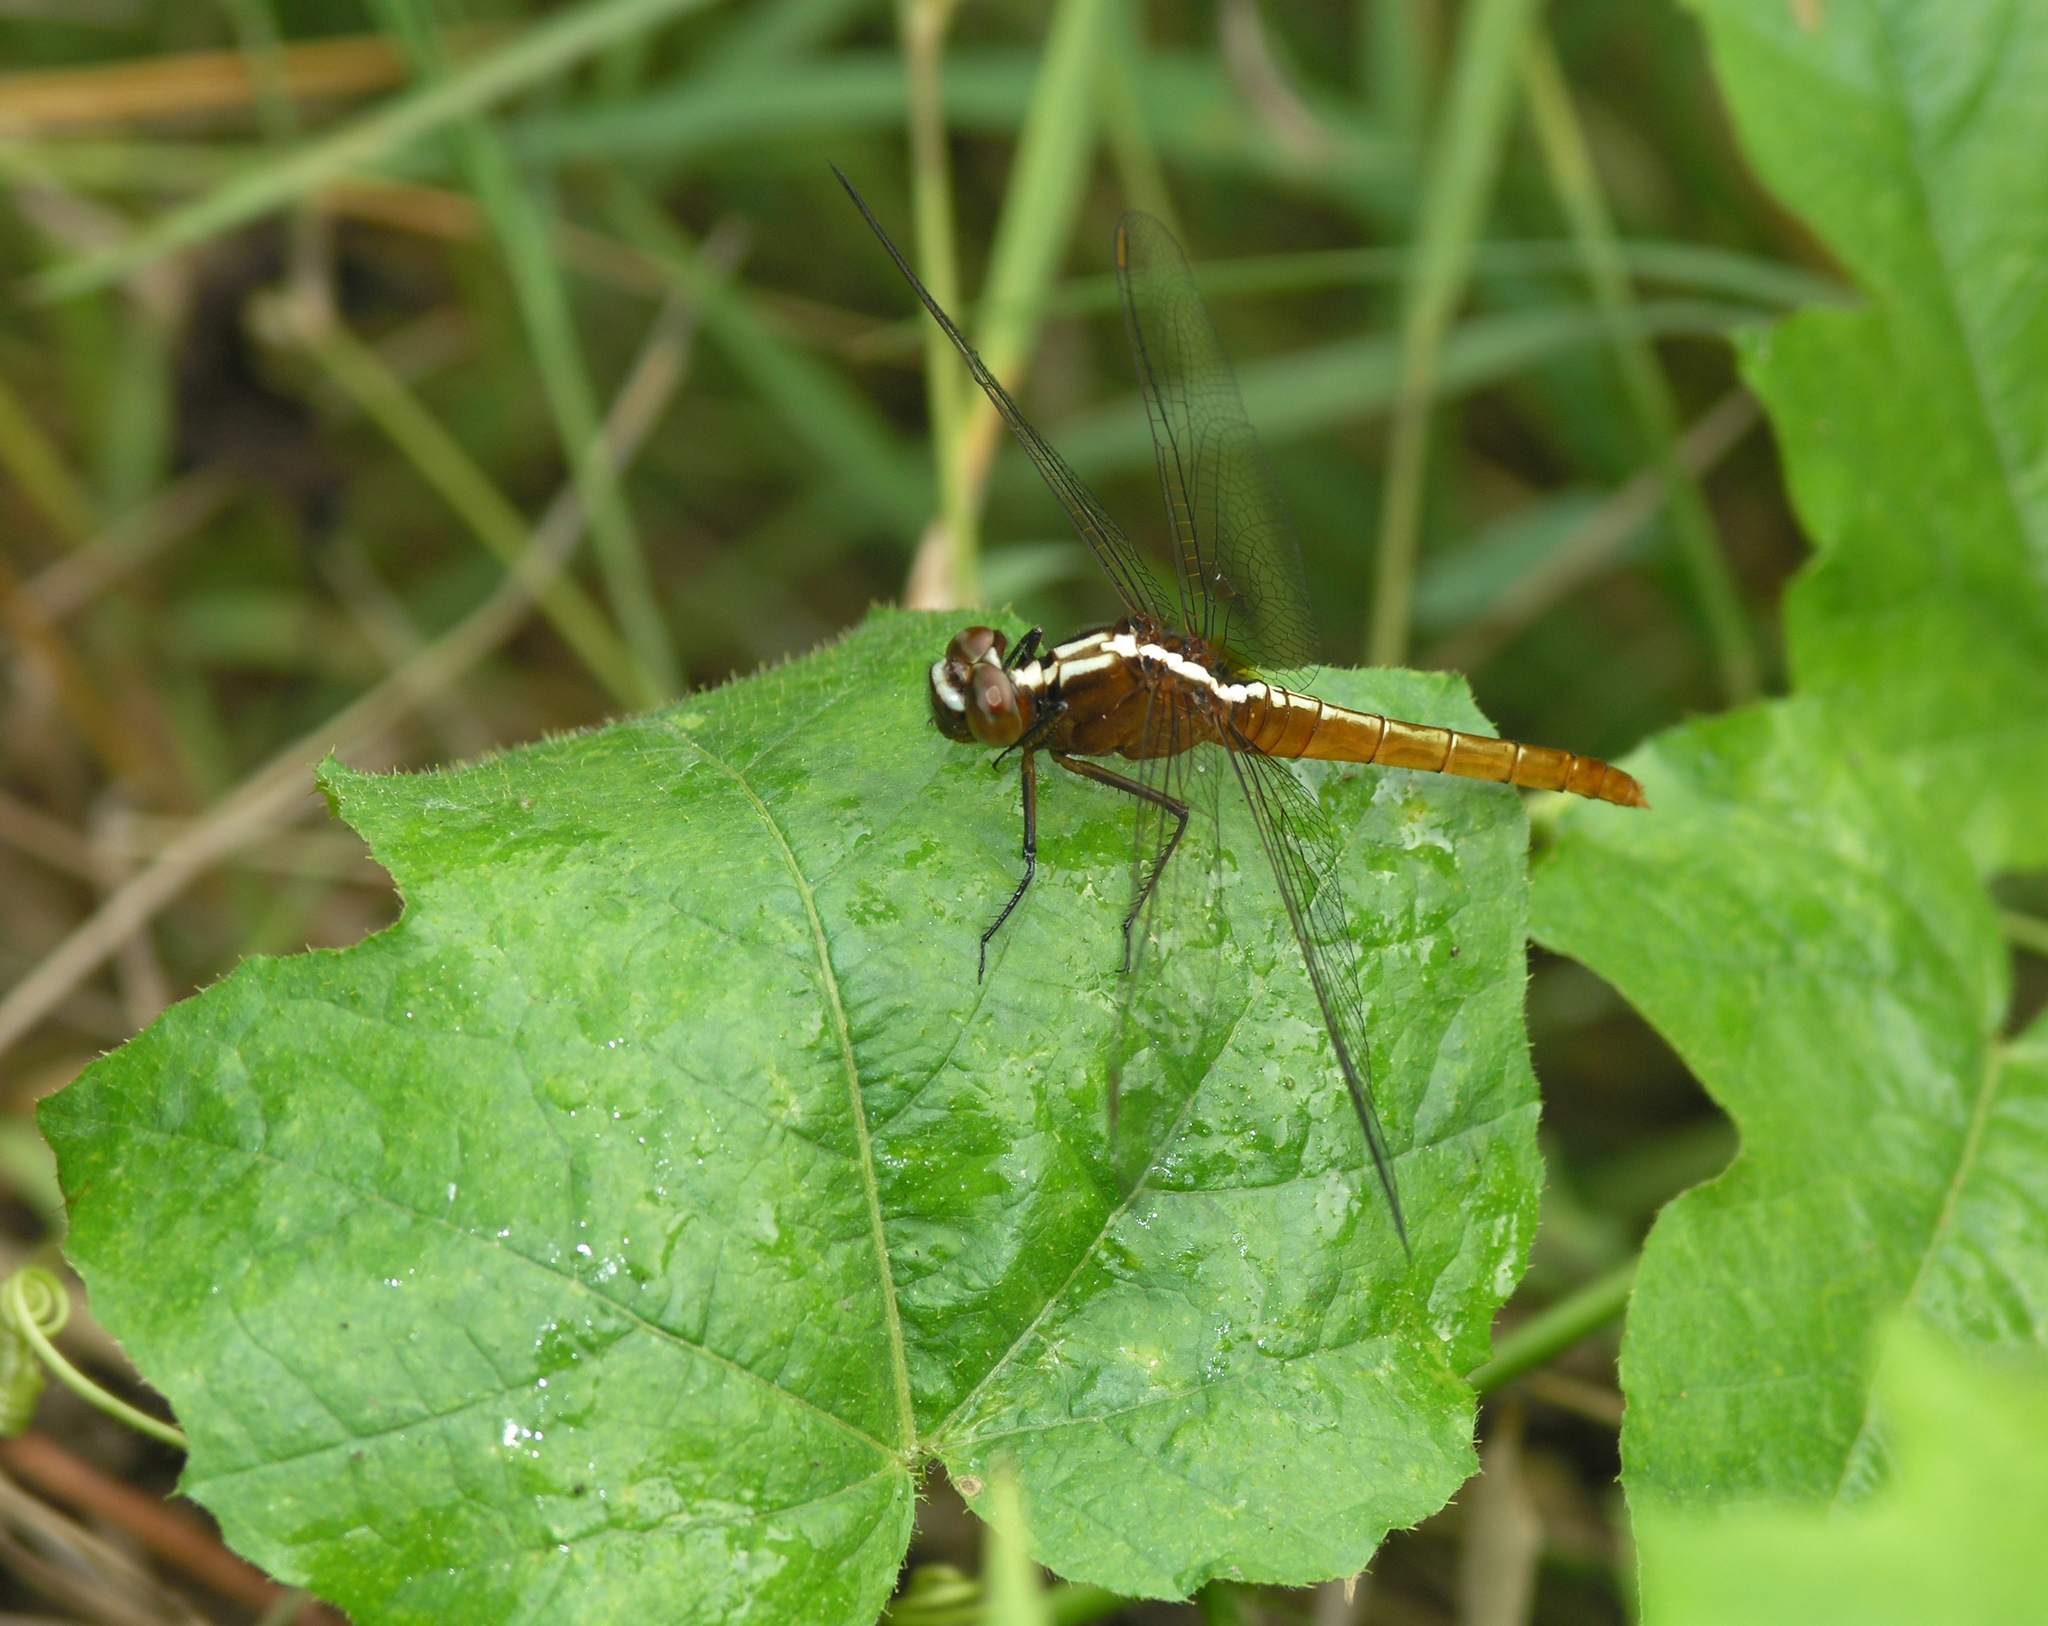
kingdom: Animalia
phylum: Arthropoda
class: Insecta
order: Odonata
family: Libellulidae
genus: Rhodothemis
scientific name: Rhodothemis rufa
